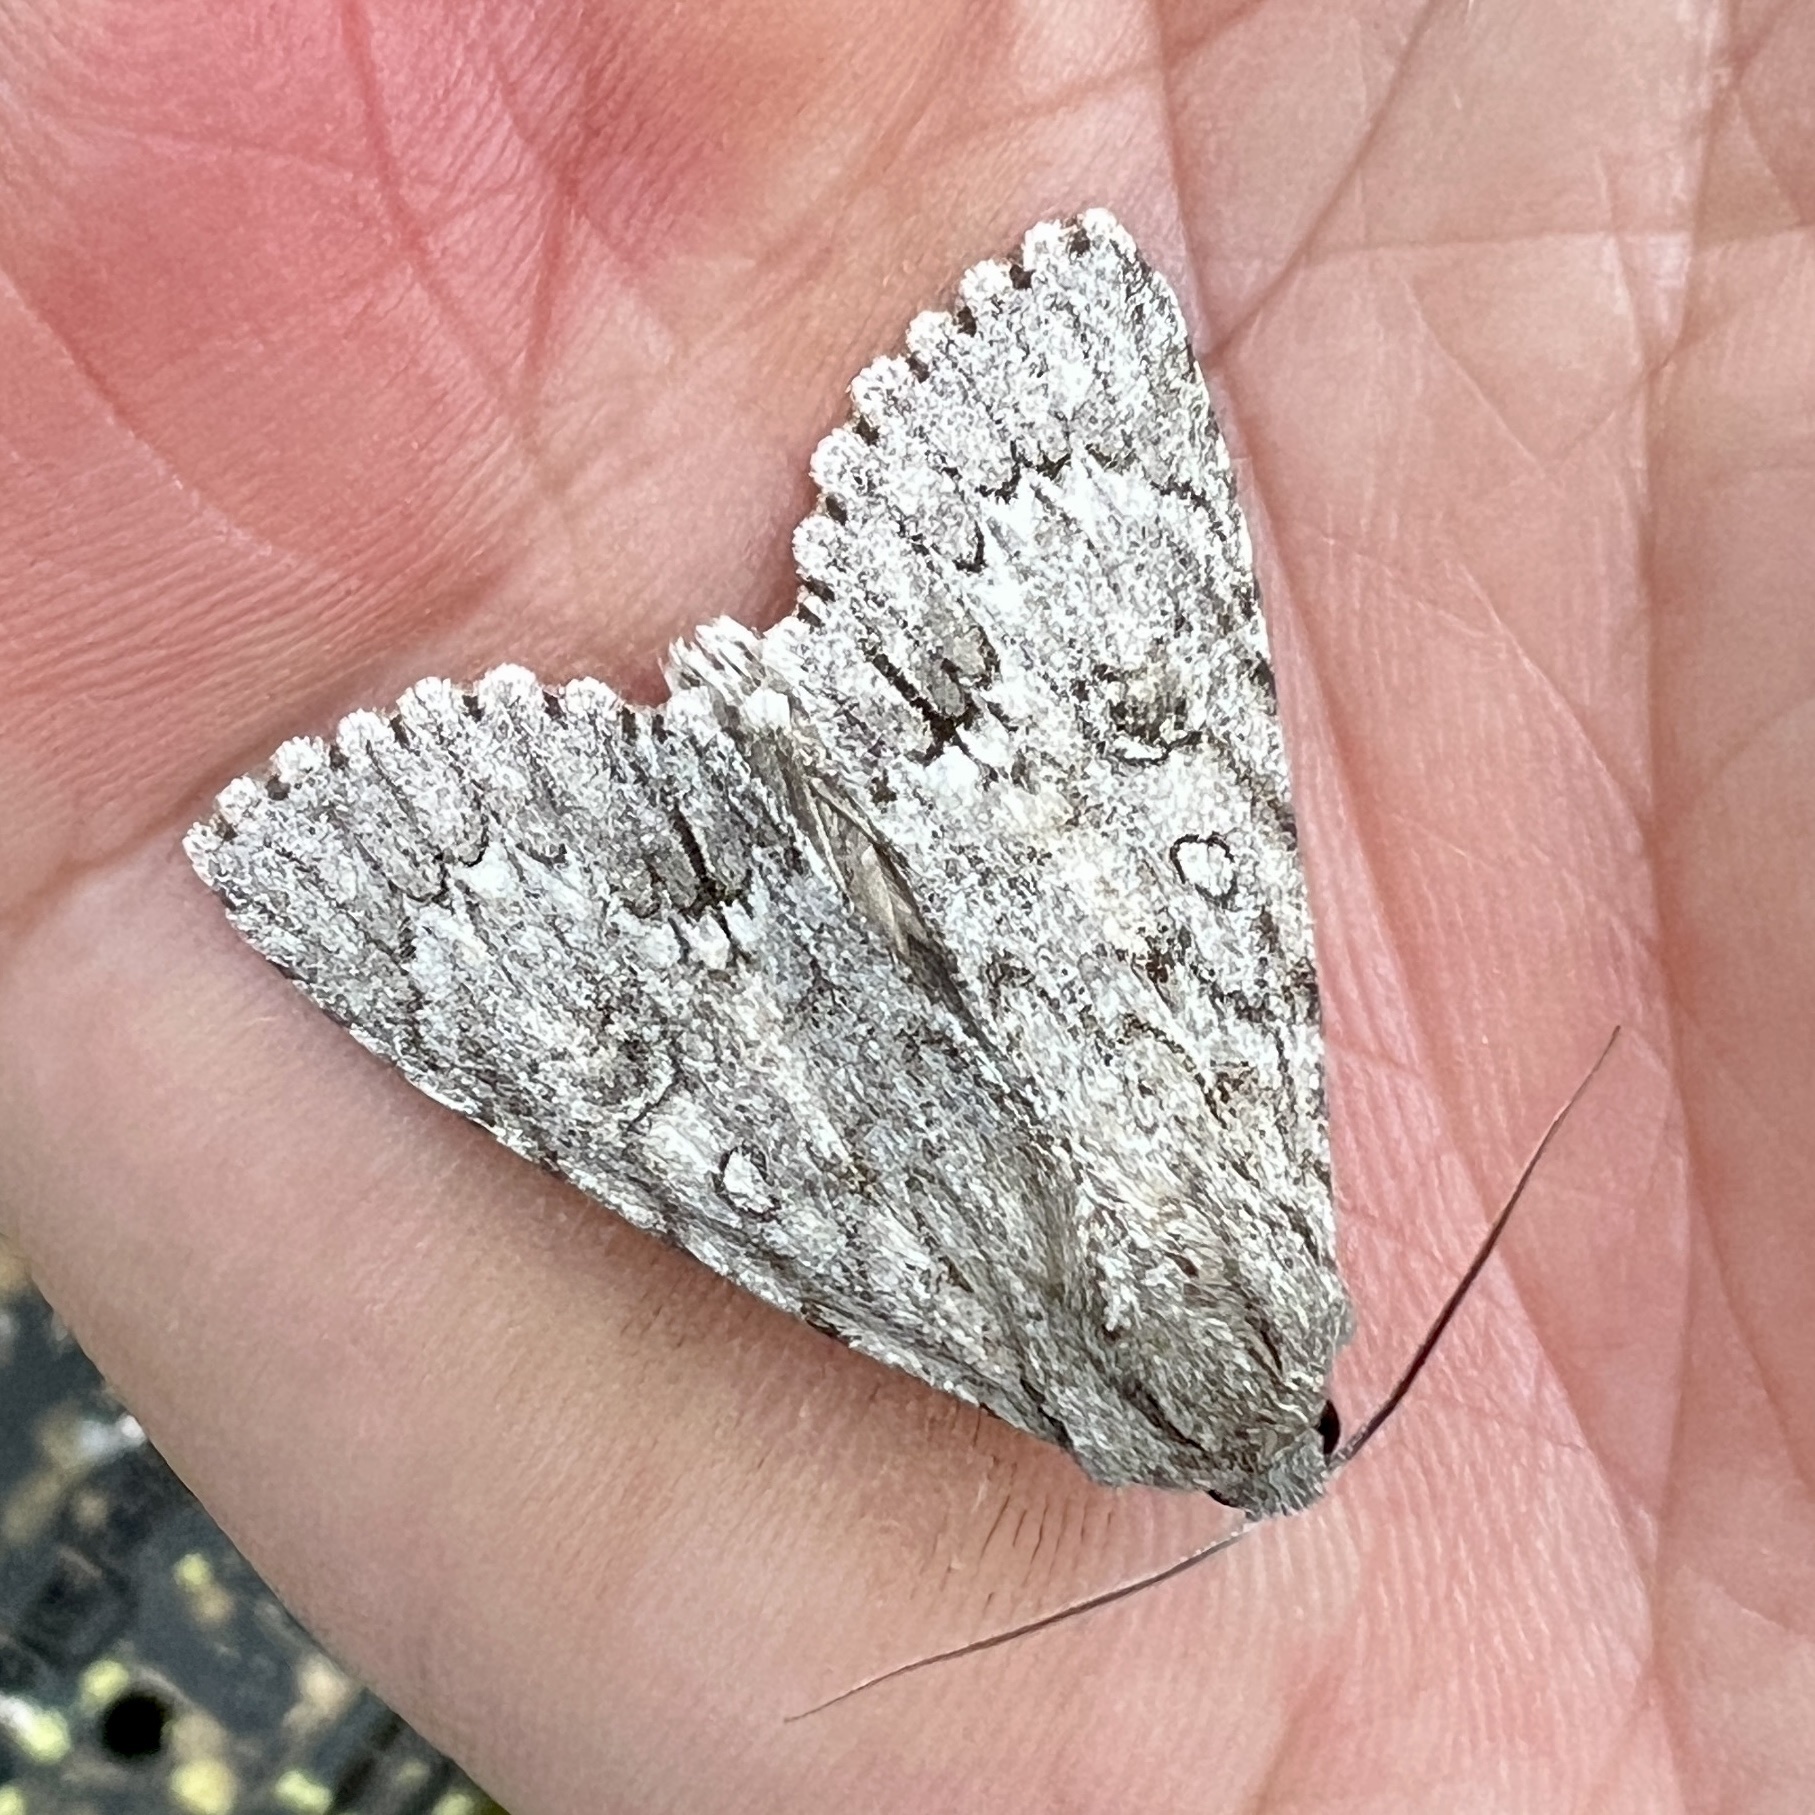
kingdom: Animalia
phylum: Arthropoda
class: Insecta
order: Lepidoptera
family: Noctuidae
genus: Acronicta
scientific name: Acronicta americana
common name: American dagger
